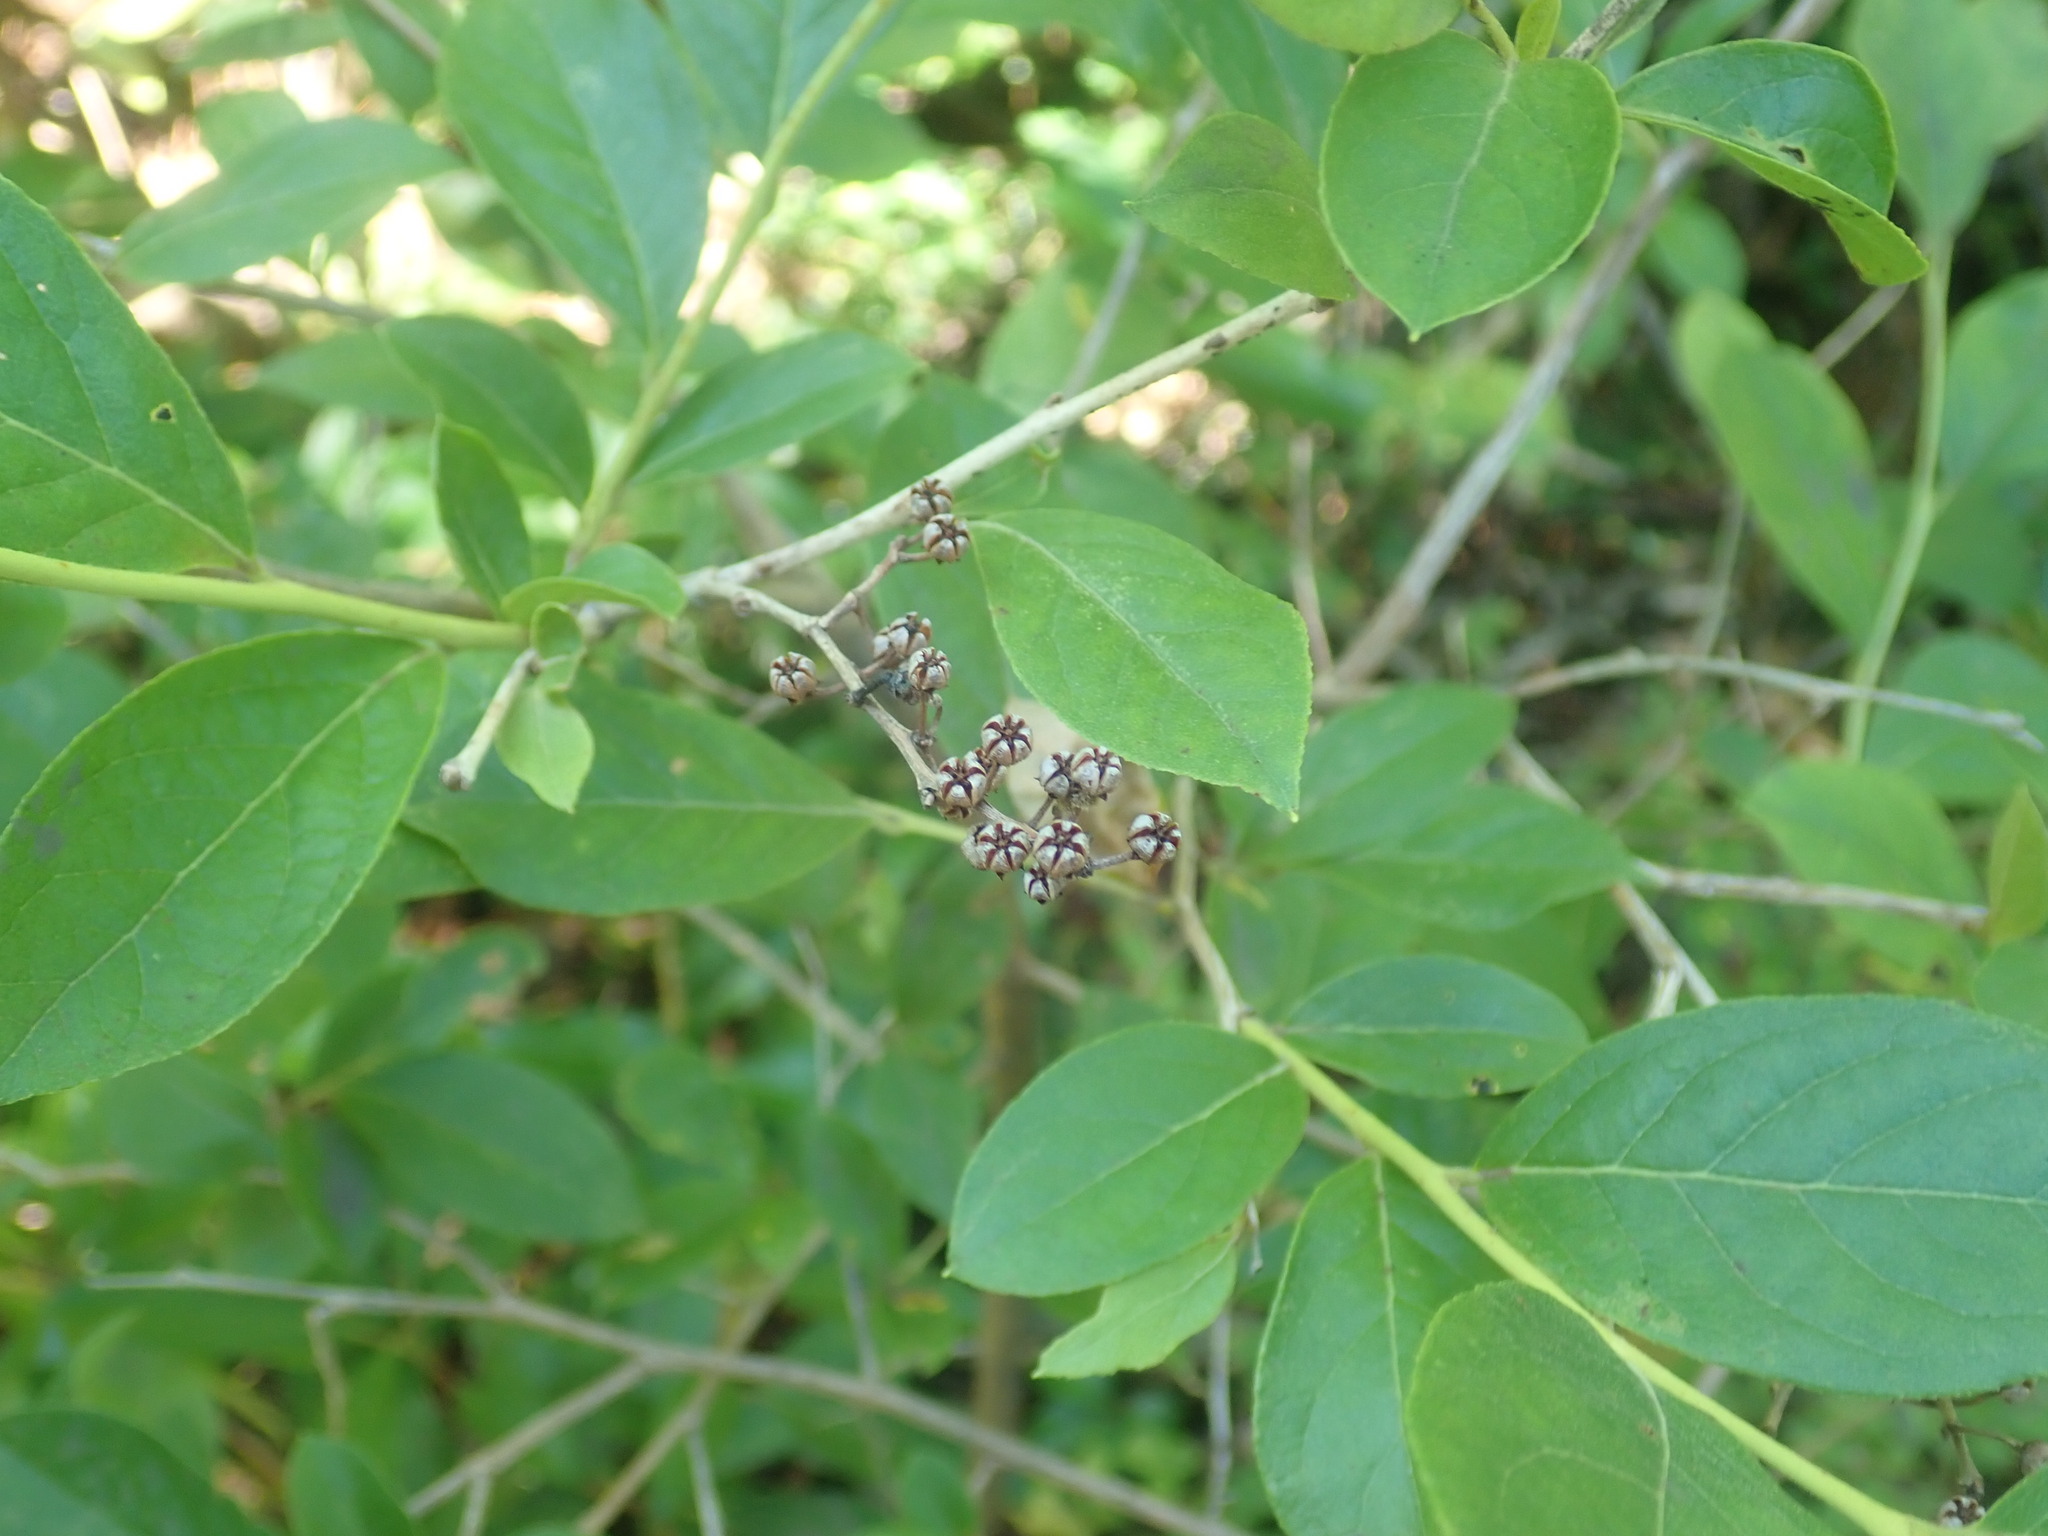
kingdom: Plantae
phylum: Tracheophyta
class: Magnoliopsida
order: Ericales
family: Ericaceae
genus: Lyonia
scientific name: Lyonia ligustrina
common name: Maleberry
